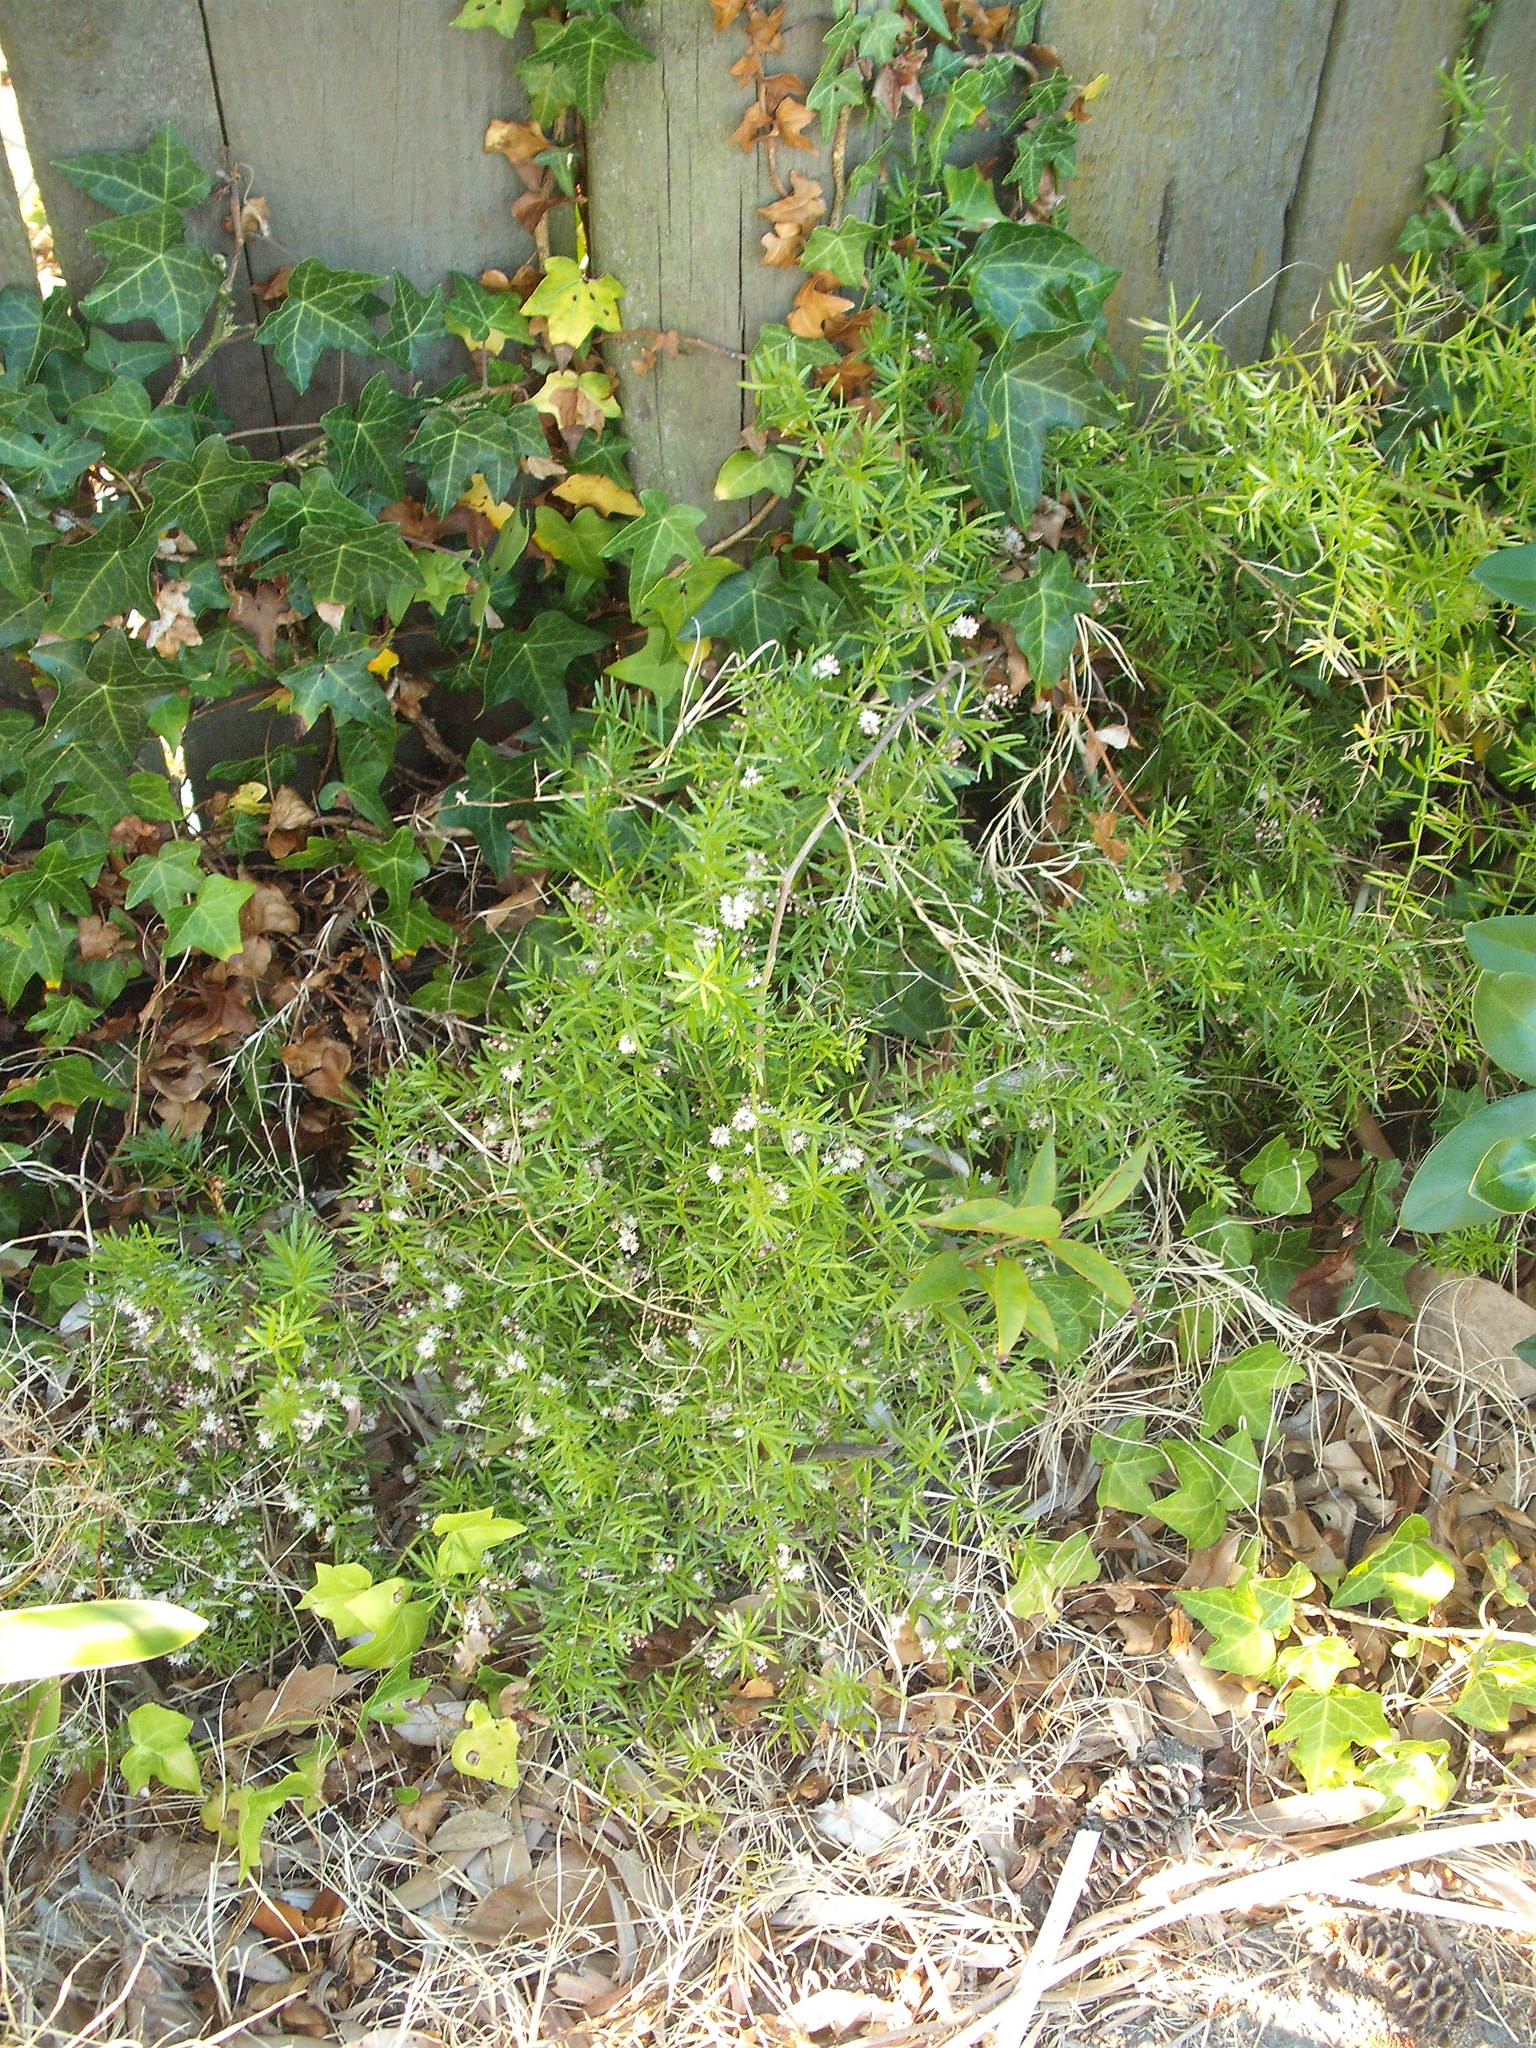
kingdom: Plantae
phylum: Tracheophyta
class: Liliopsida
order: Asparagales
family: Asparagaceae
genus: Asparagus
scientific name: Asparagus aethiopicus
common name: Sprenger's asparagus fern
